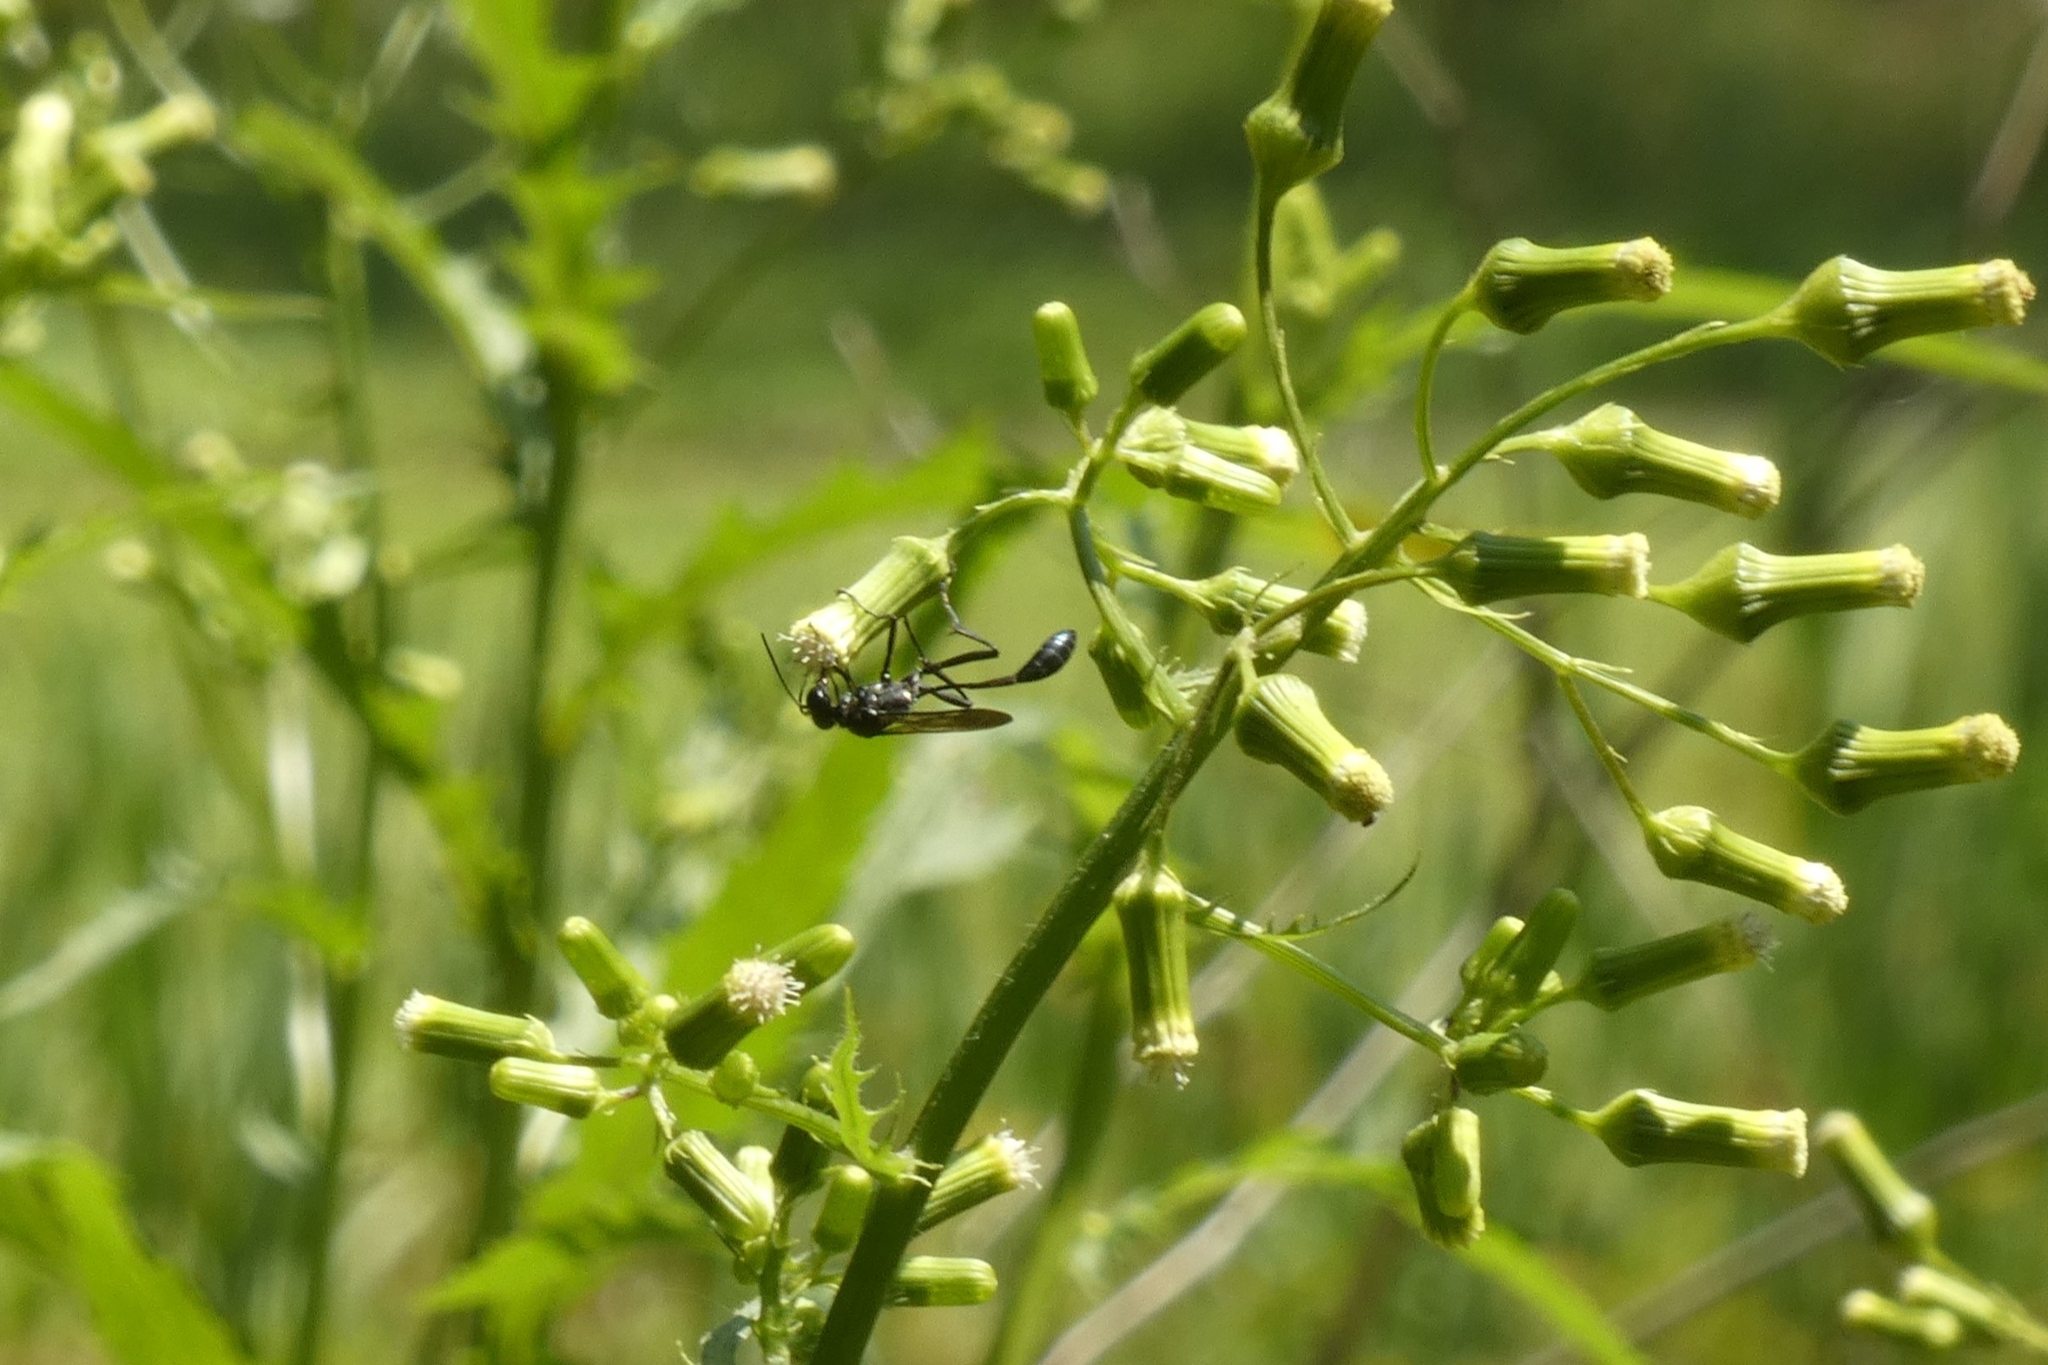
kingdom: Animalia
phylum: Arthropoda
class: Insecta
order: Hymenoptera
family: Sphecidae
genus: Eremnophila
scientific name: Eremnophila aureonotata
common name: Gold-marked thread-waisted wasp
